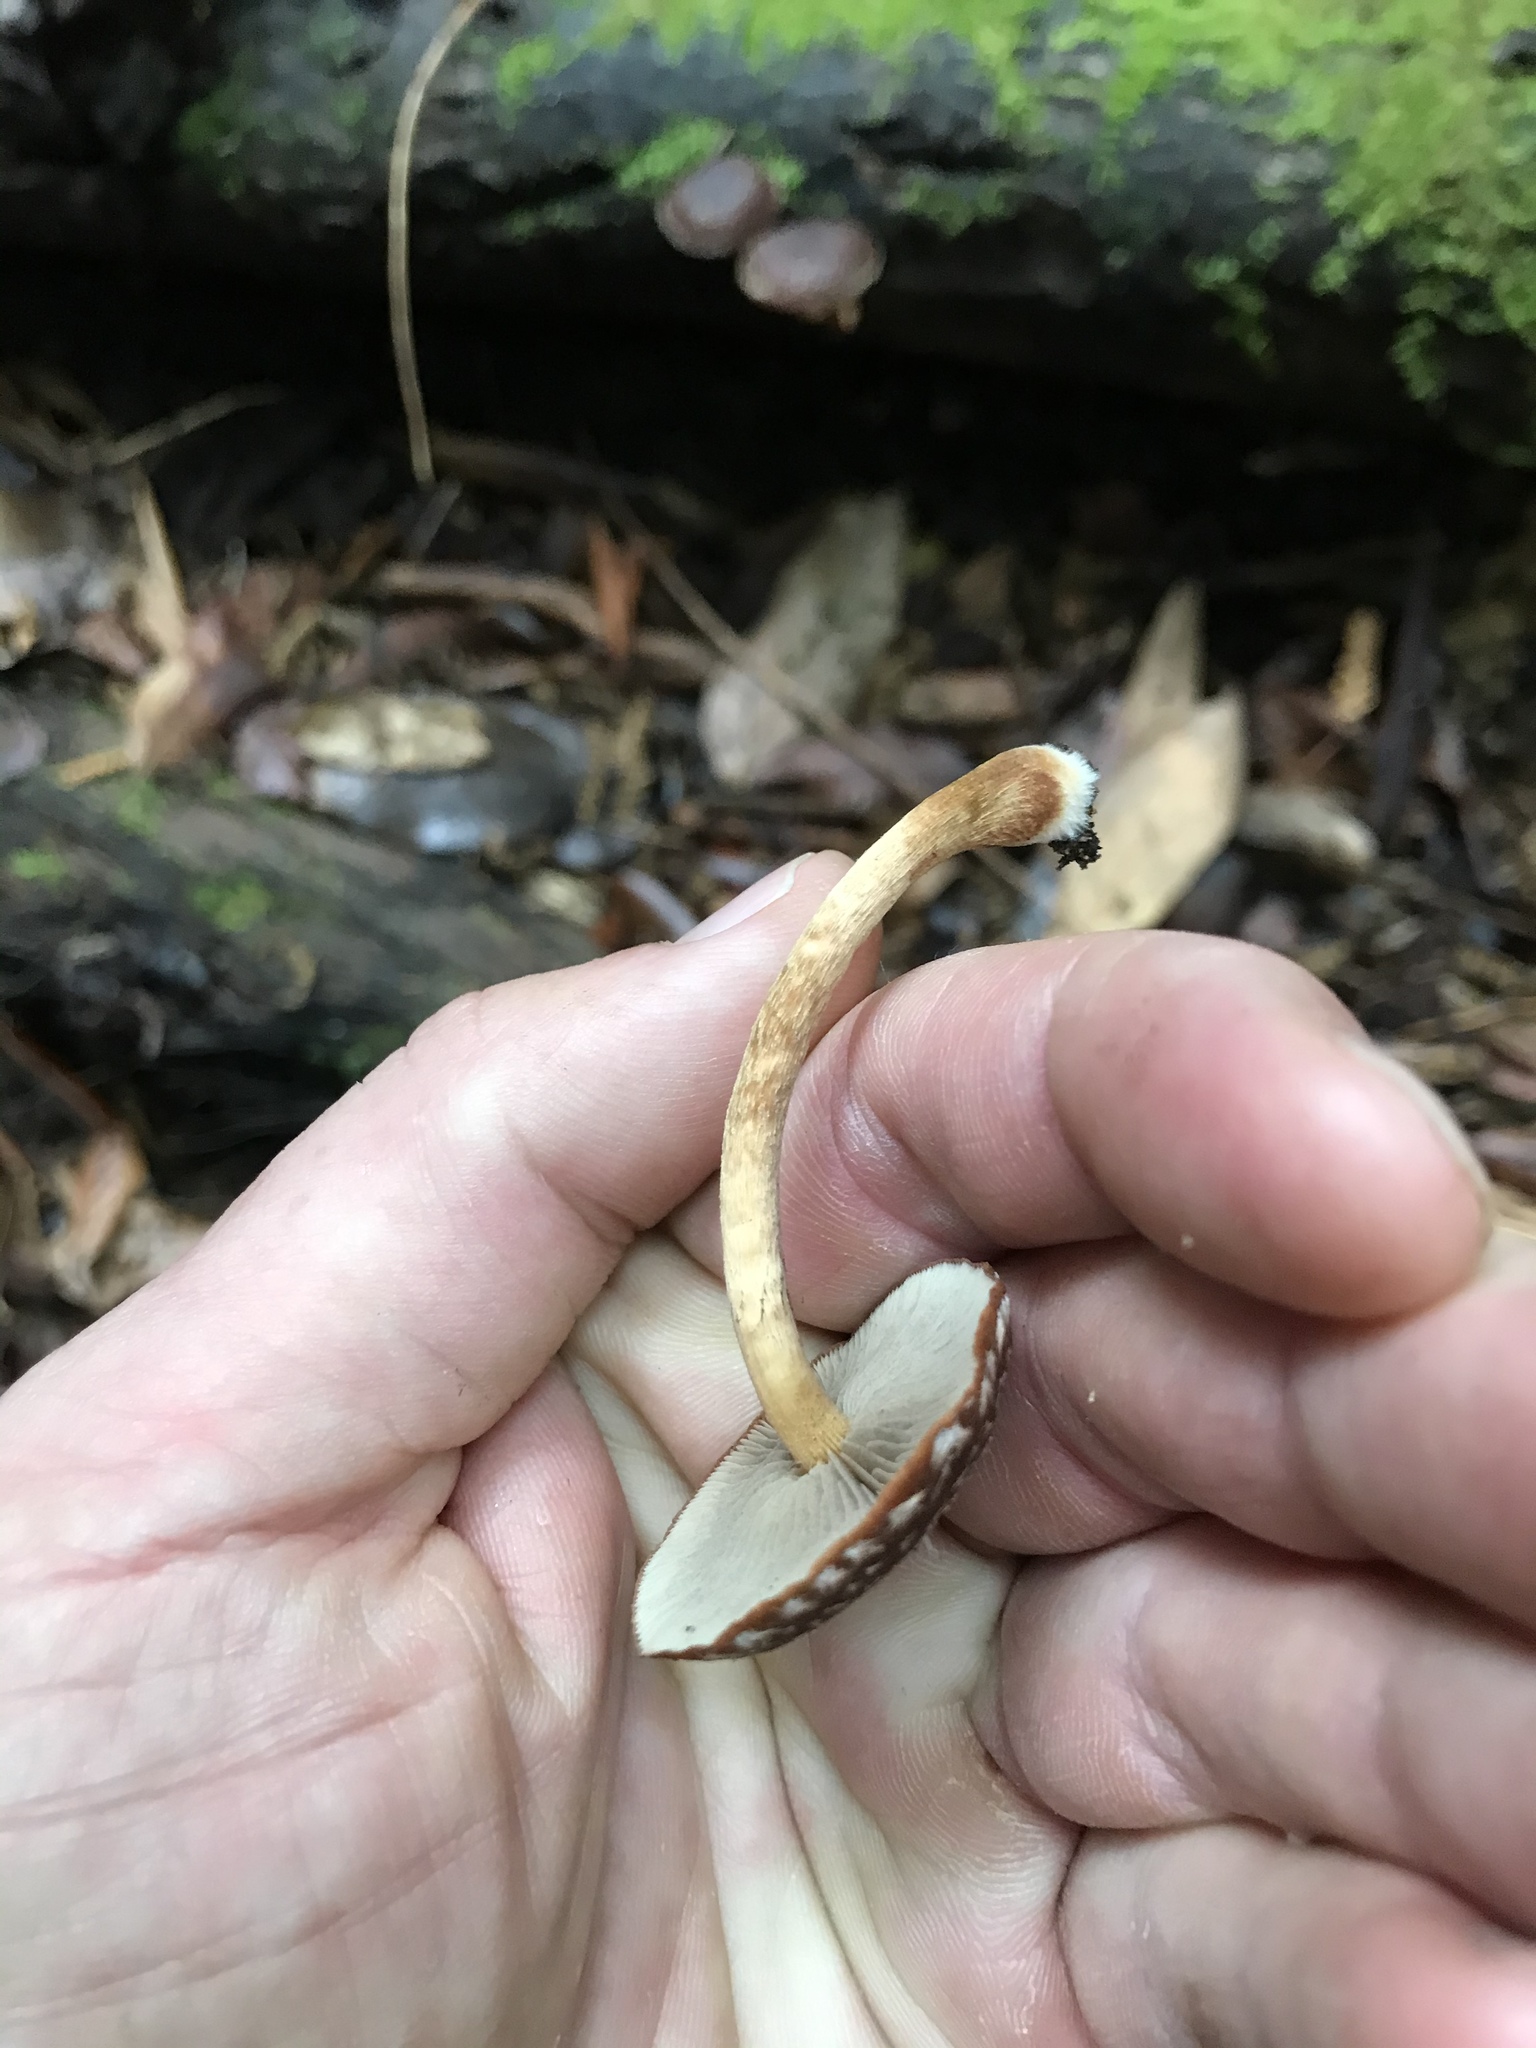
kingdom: Fungi
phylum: Basidiomycota
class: Agaricomycetes
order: Agaricales
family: Strophariaceae
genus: Hypholoma
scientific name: Hypholoma brunneum
